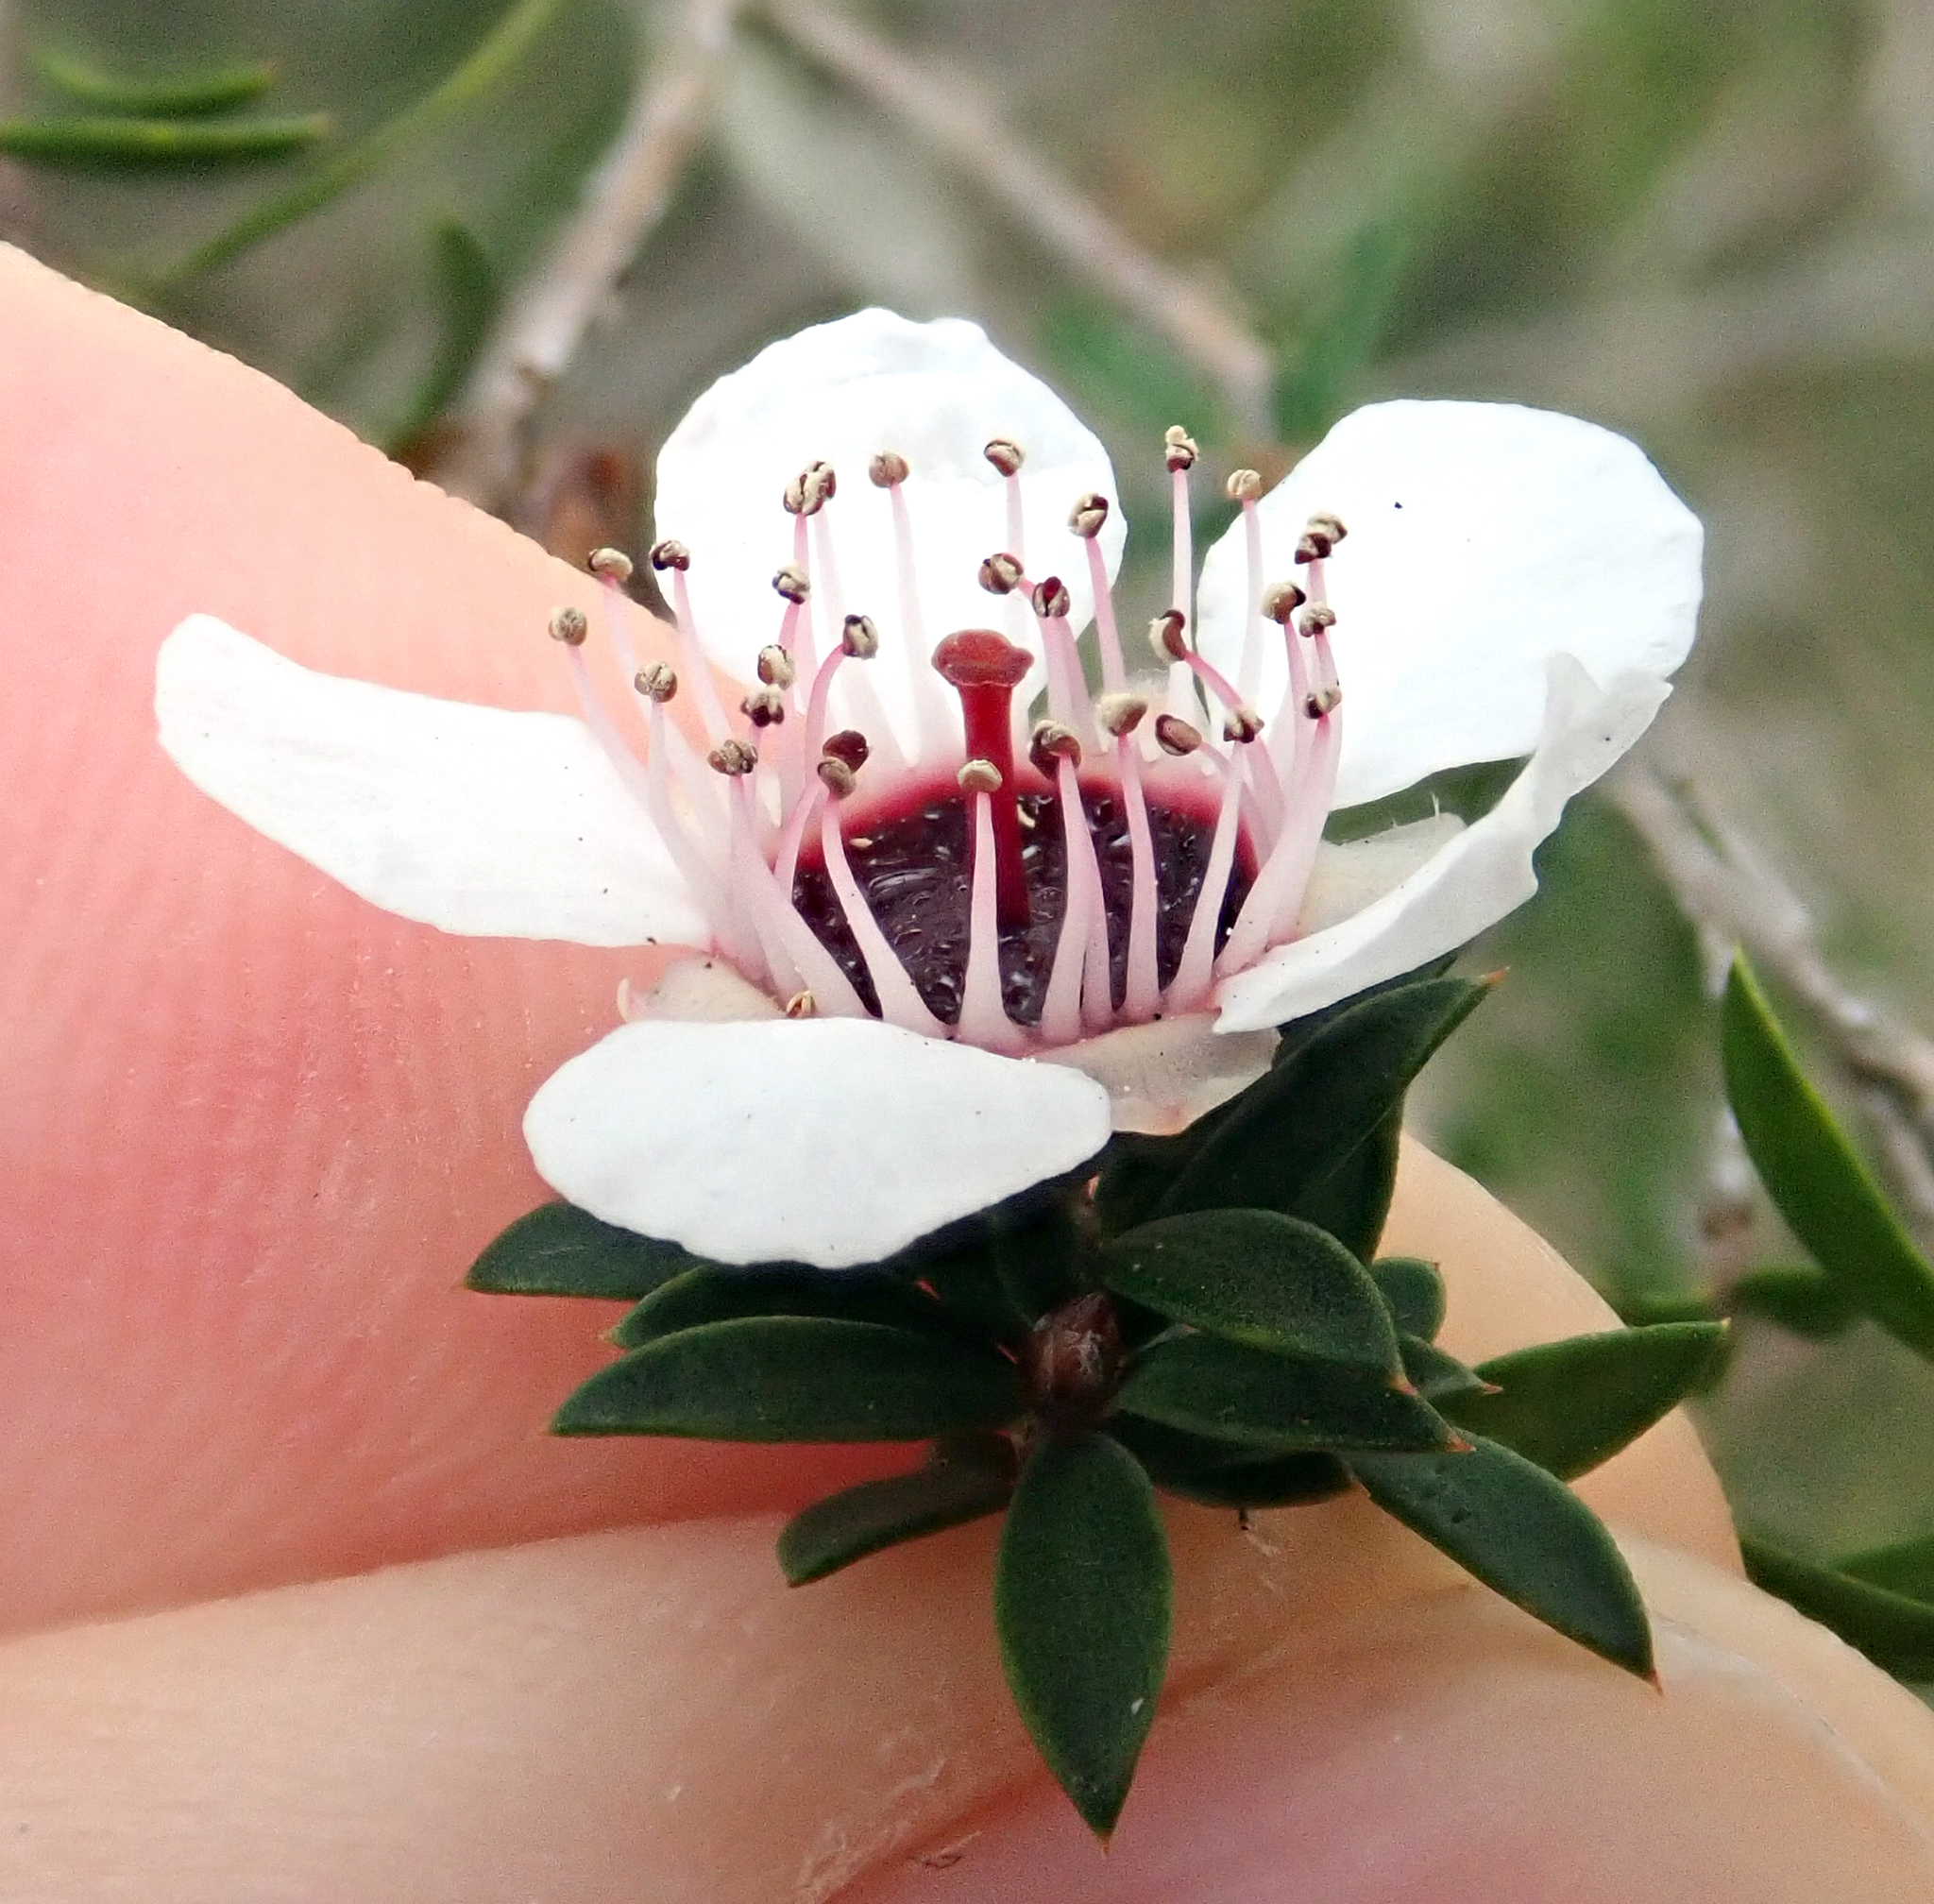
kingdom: Plantae
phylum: Tracheophyta
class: Magnoliopsida
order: Myrtales
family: Myrtaceae
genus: Leptospermum
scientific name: Leptospermum scoparium
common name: Broom tea-tree
